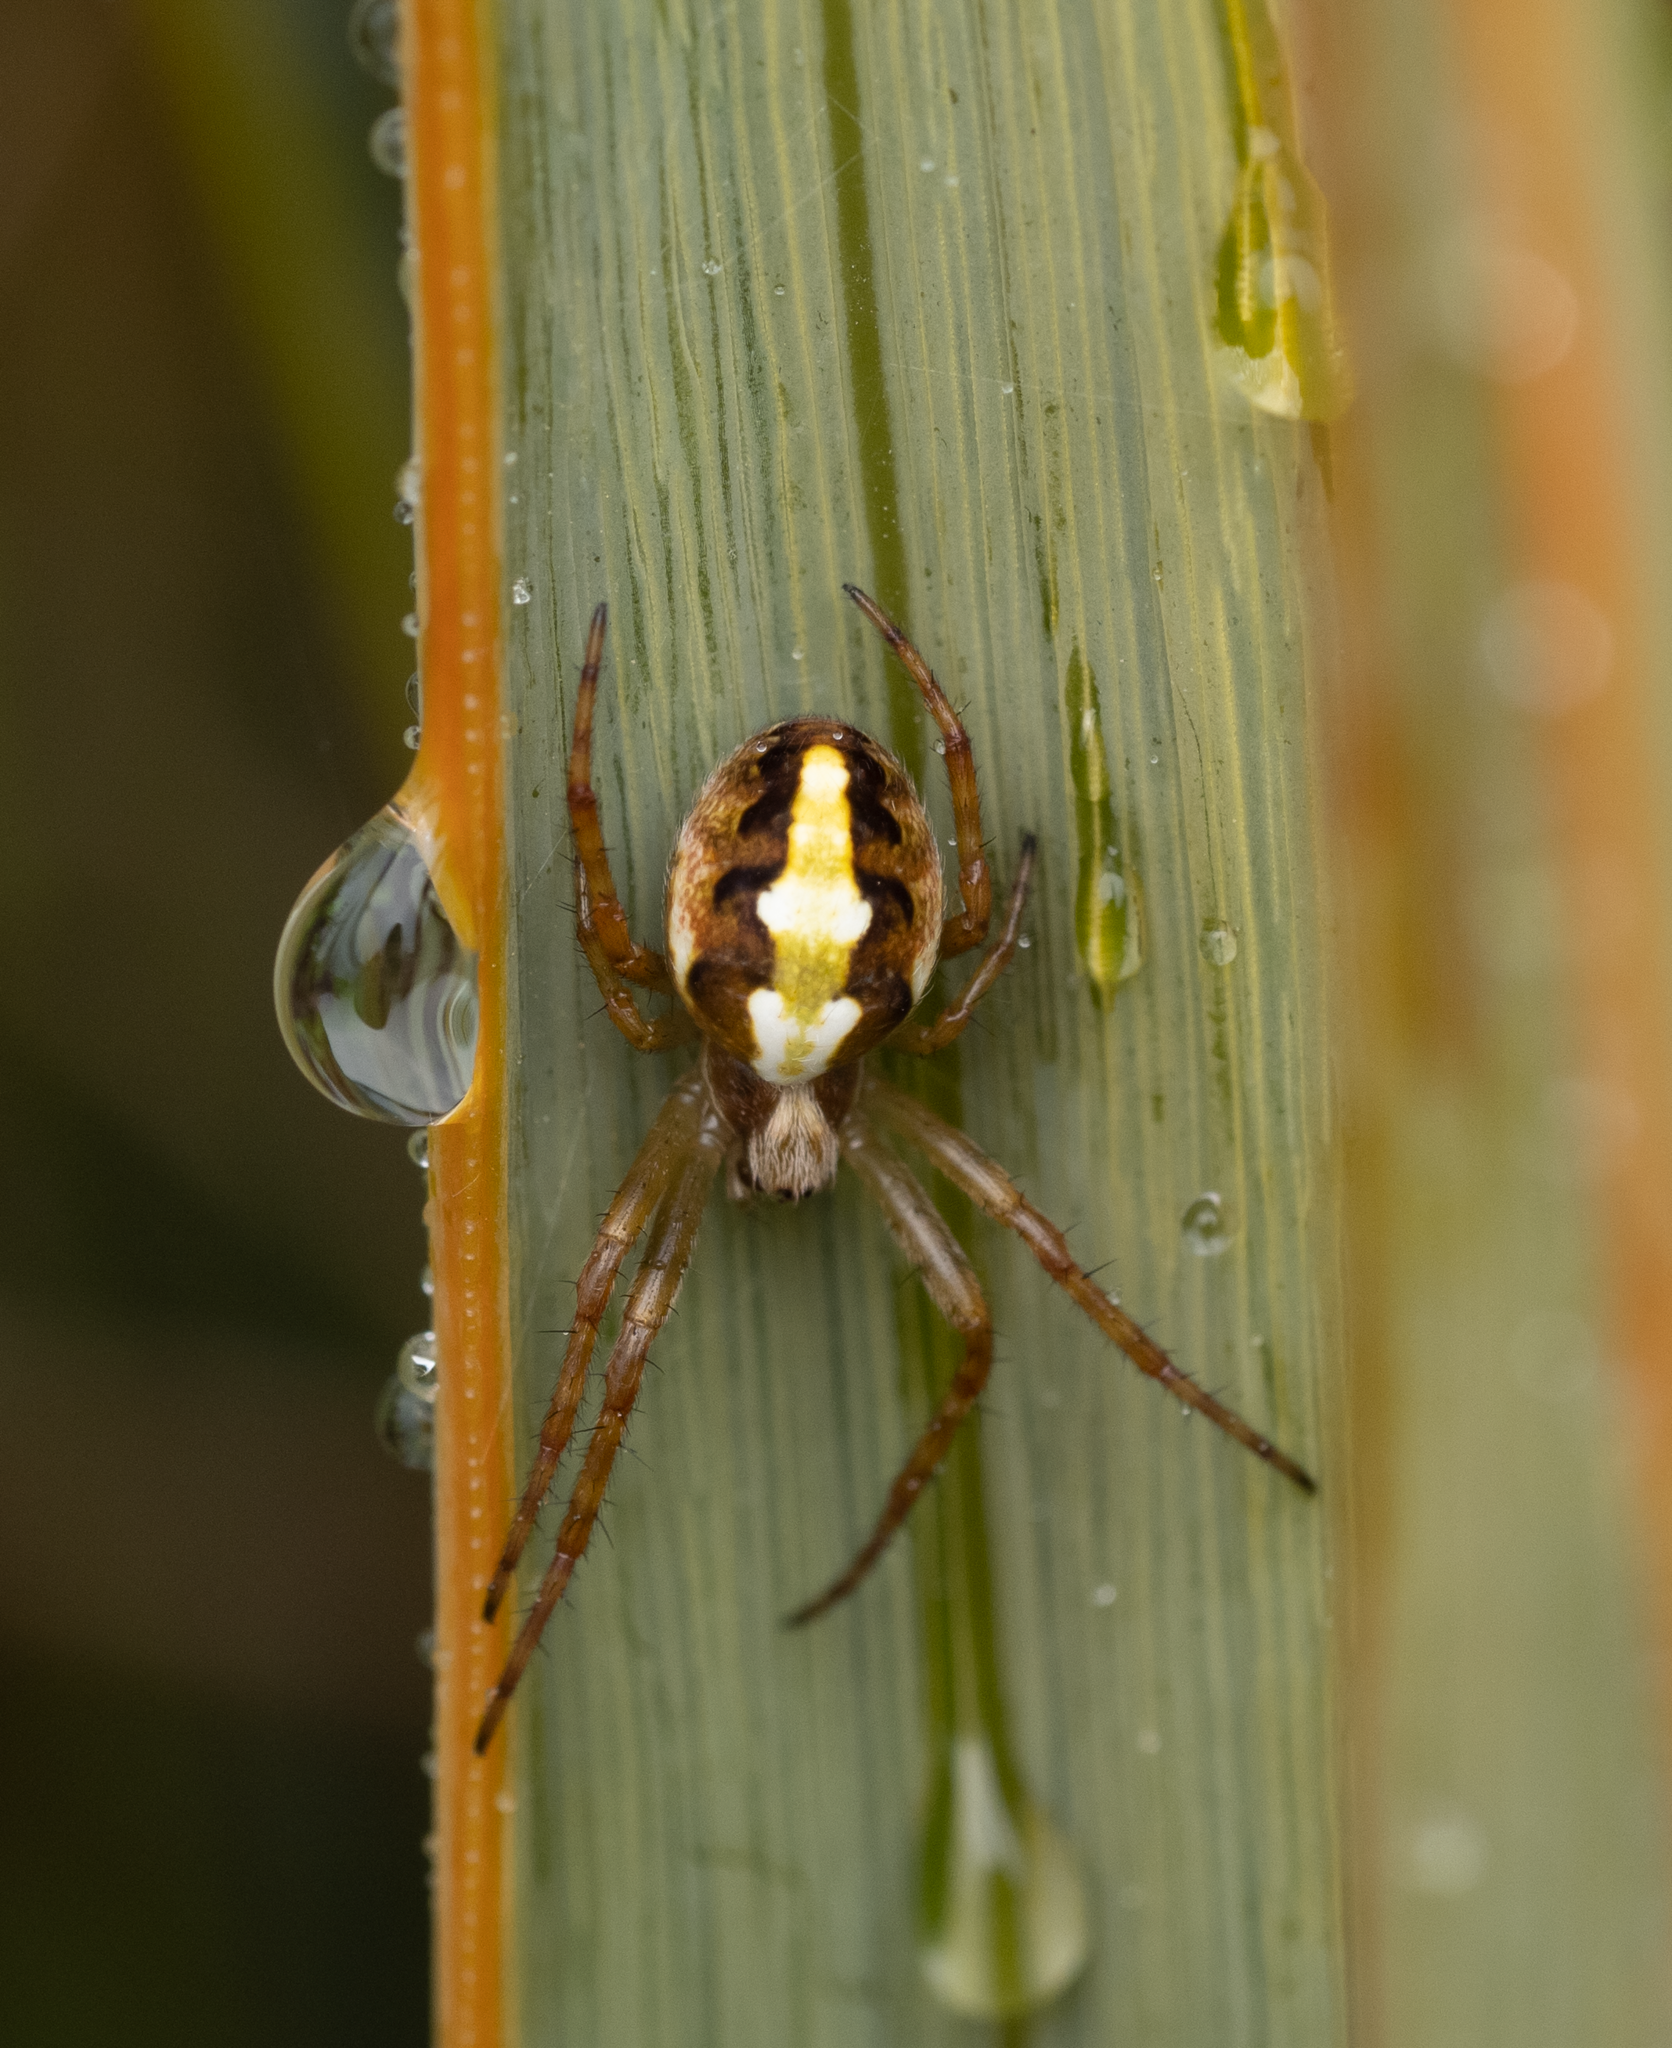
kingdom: Animalia
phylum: Arthropoda
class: Arachnida
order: Araneae
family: Araneidae
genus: Novaranea
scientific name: Novaranea queribunda
